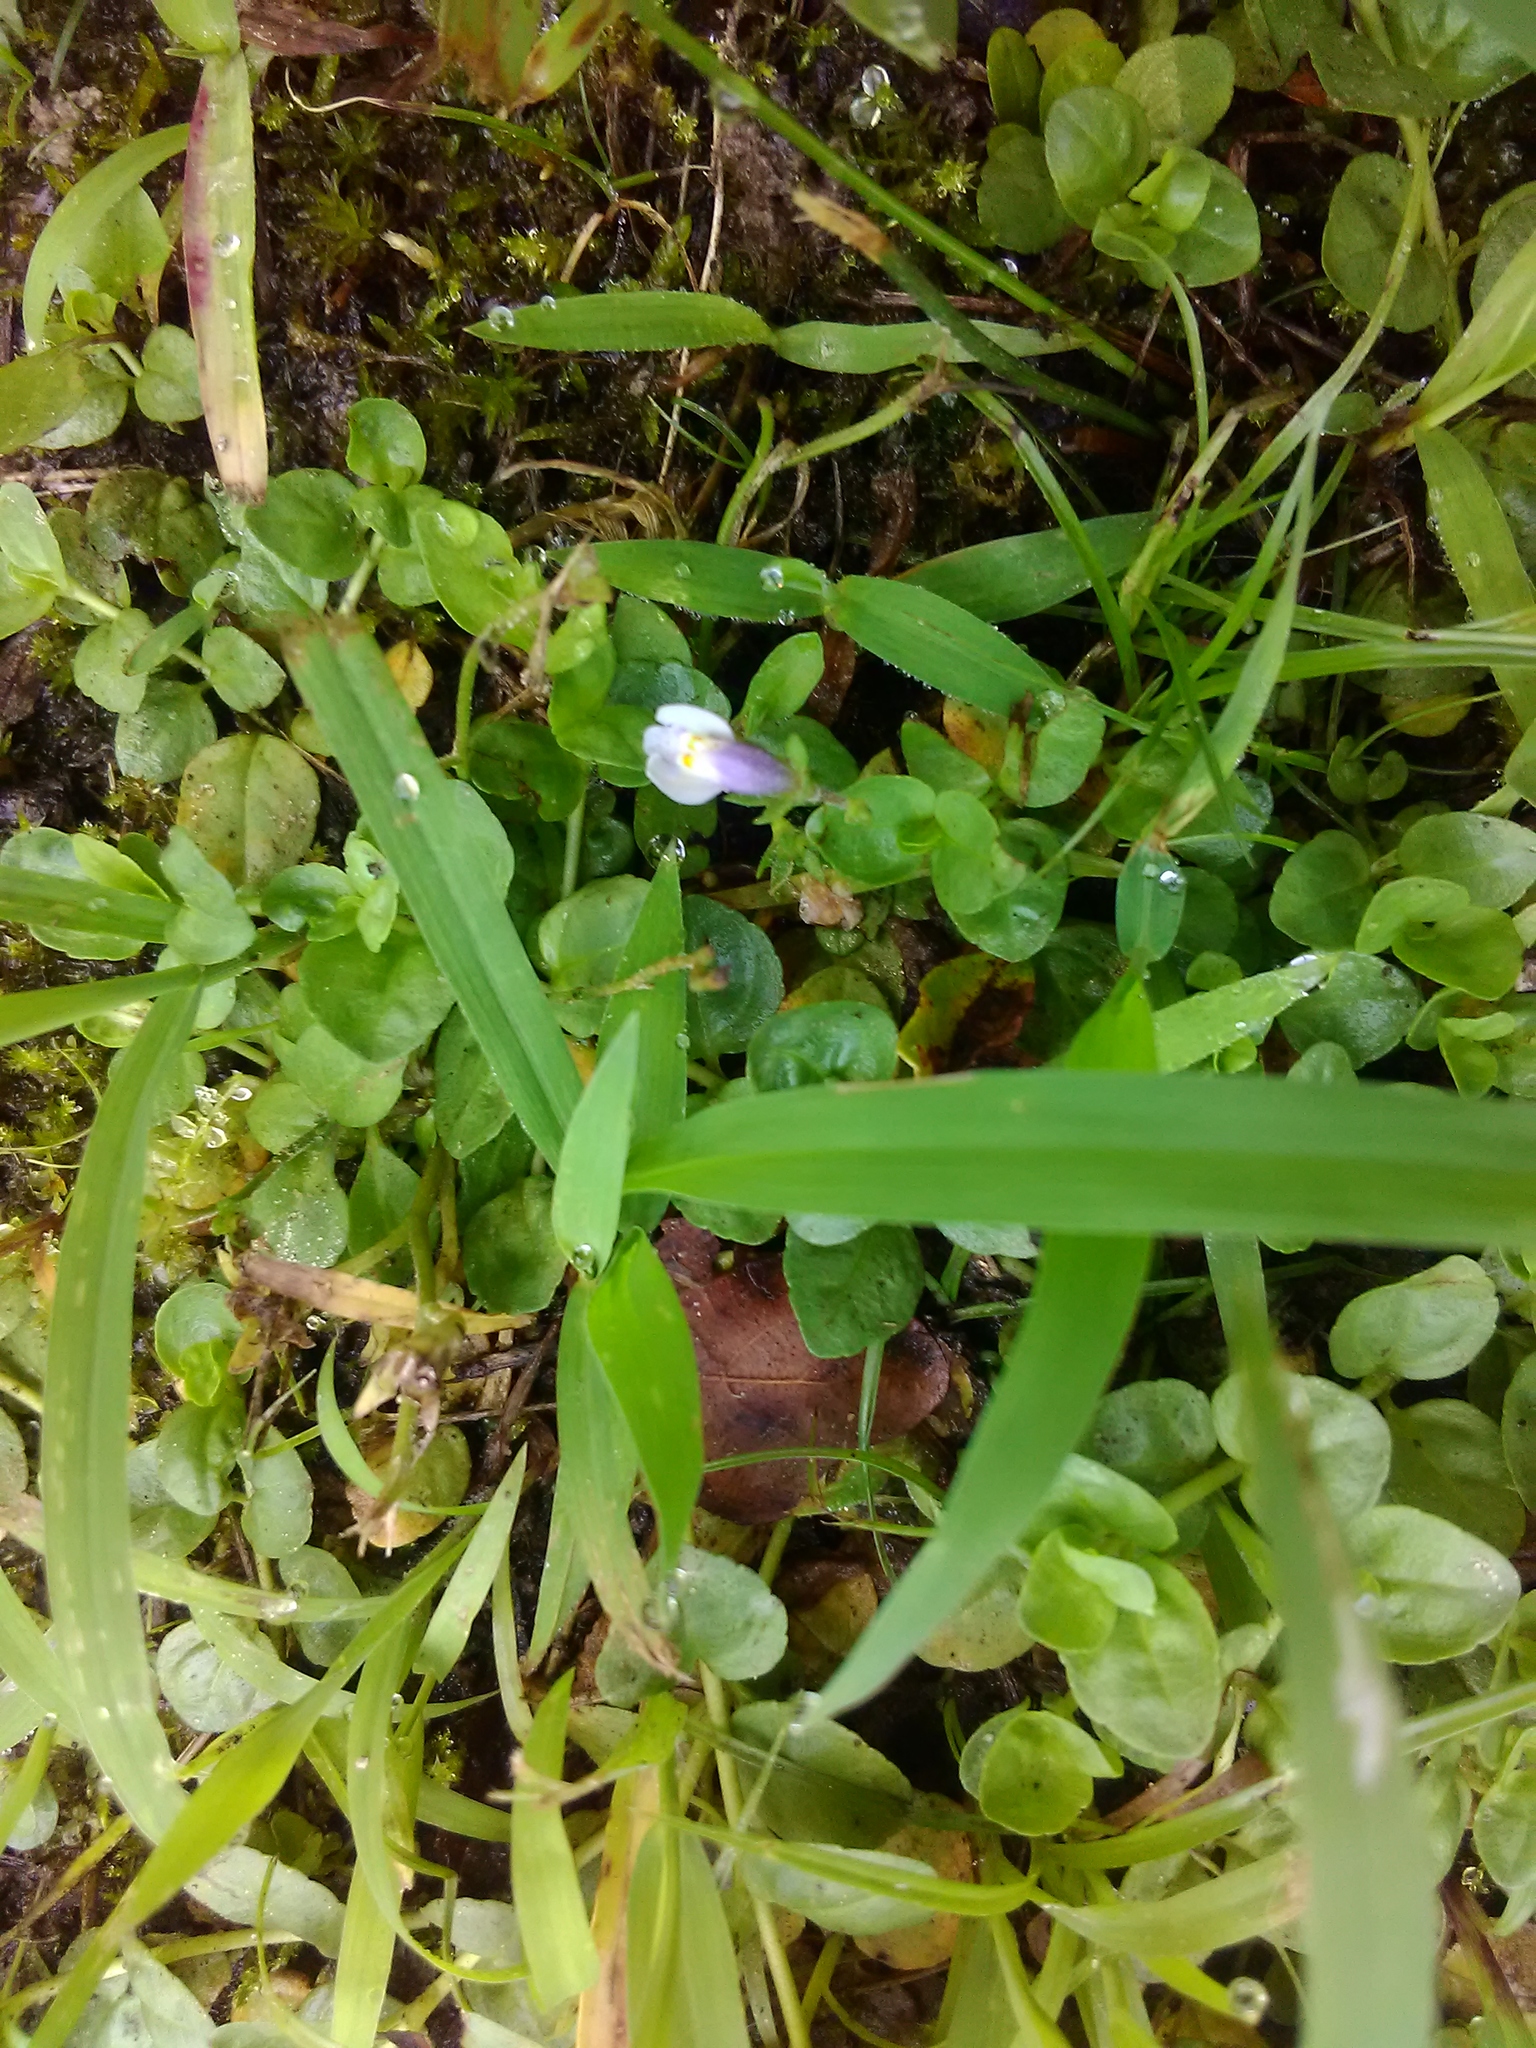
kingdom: Plantae
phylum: Tracheophyta
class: Magnoliopsida
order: Lamiales
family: Mazaceae
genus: Mazus
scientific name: Mazus pumilus
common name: Japanese mazus
